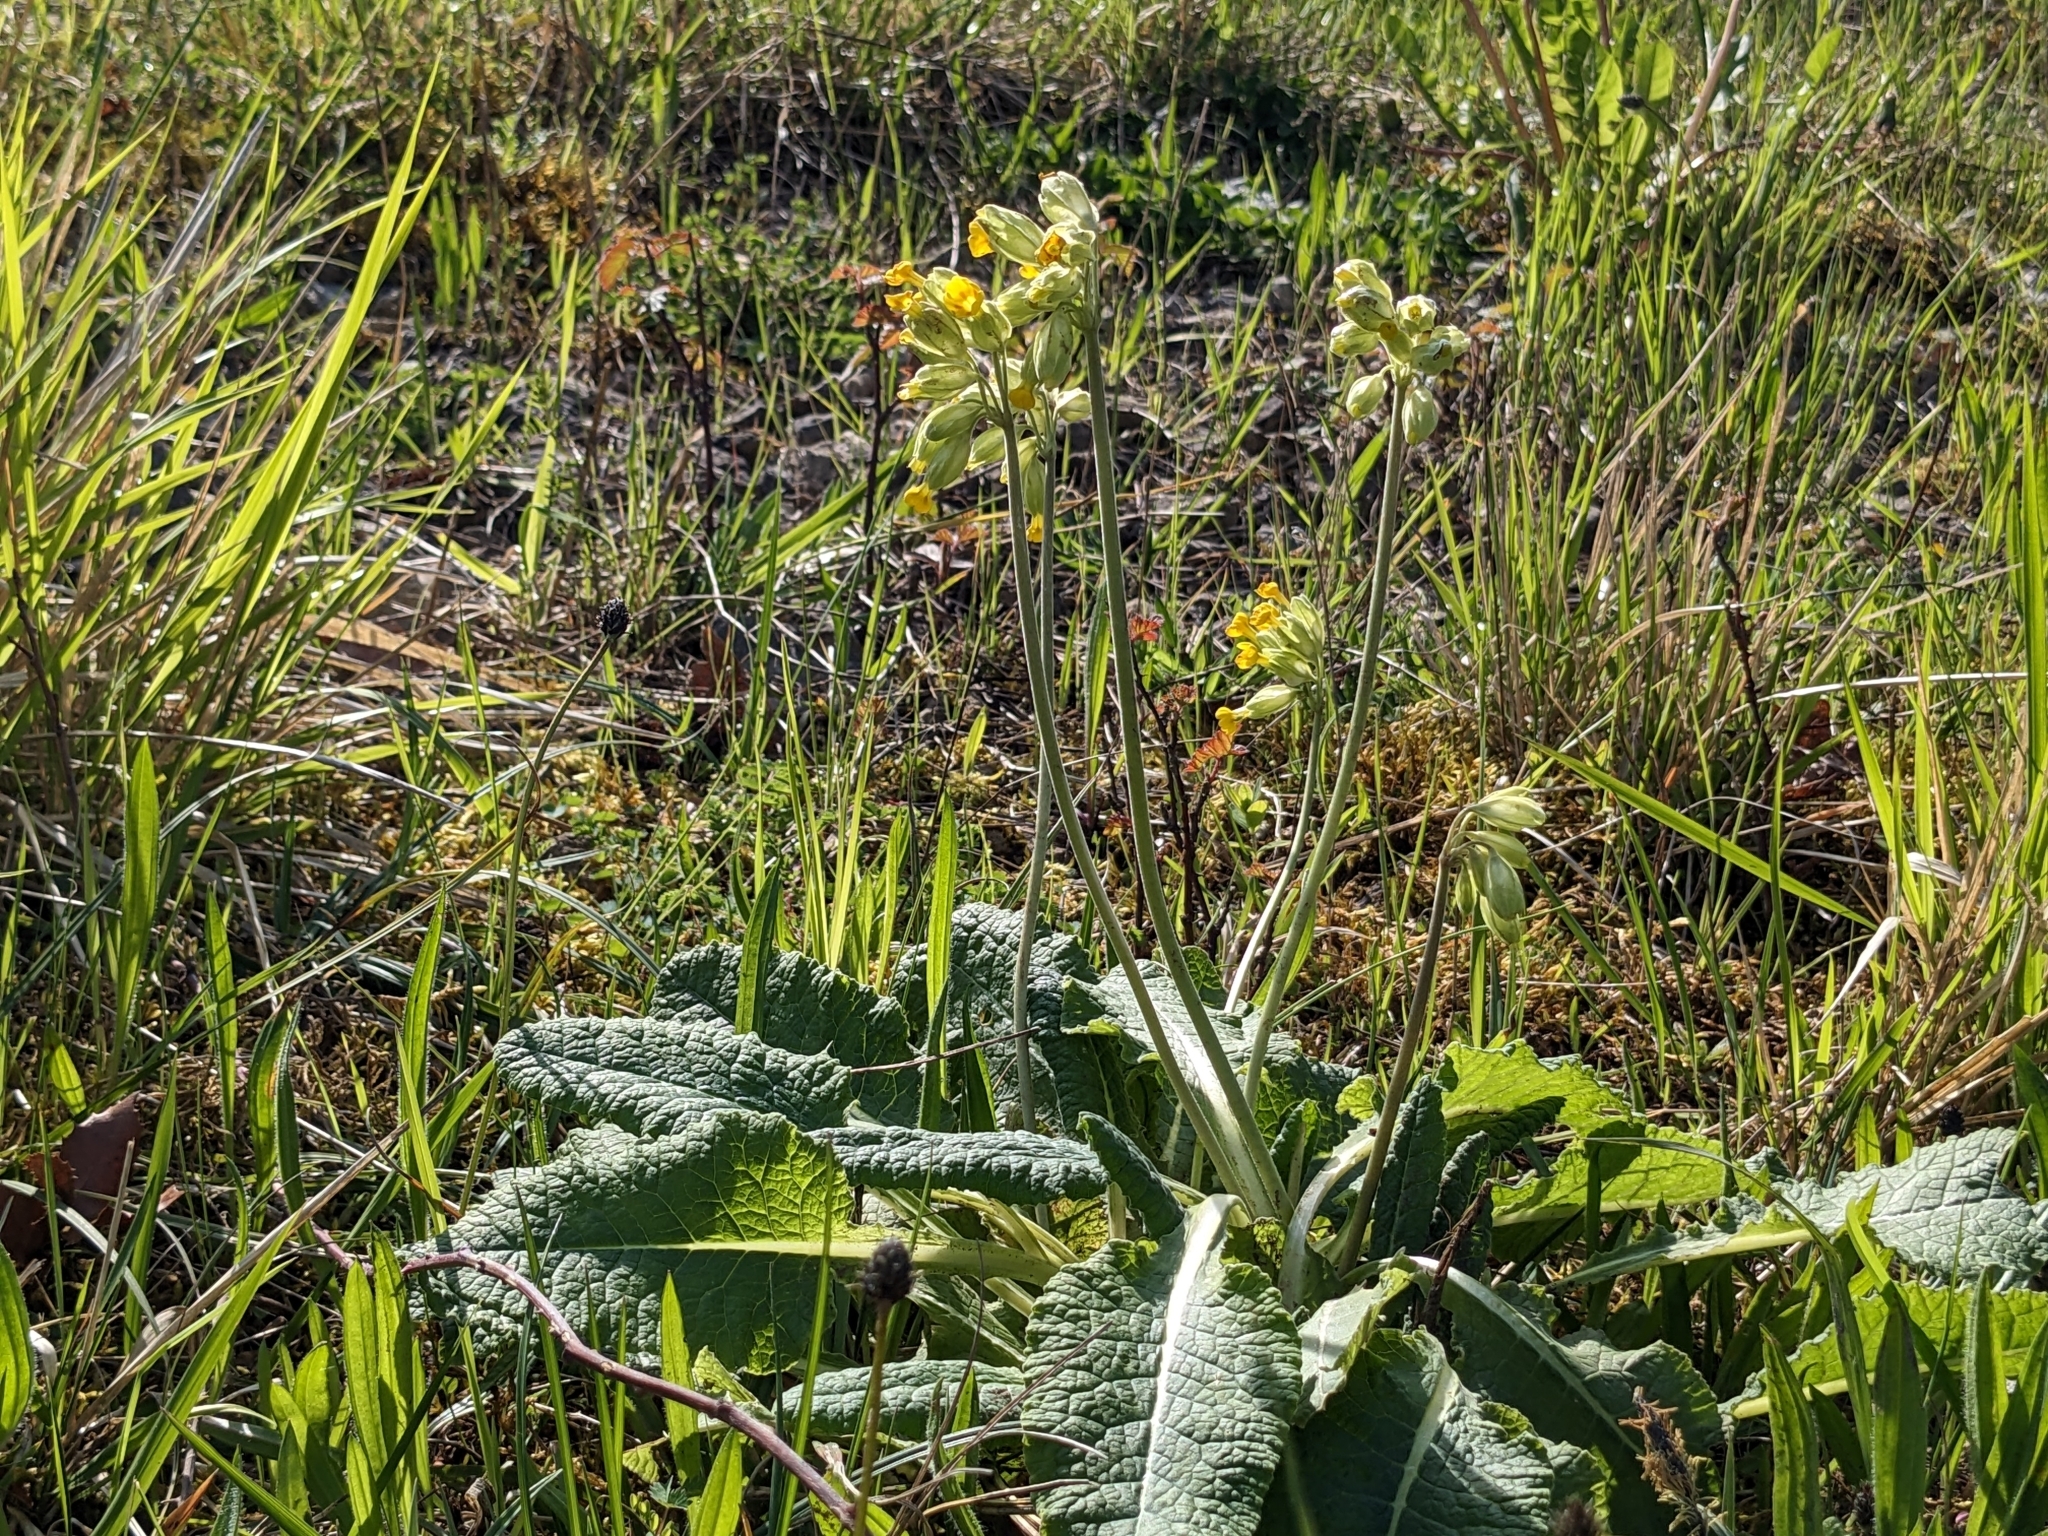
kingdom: Plantae
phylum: Tracheophyta
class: Magnoliopsida
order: Ericales
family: Primulaceae
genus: Primula
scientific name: Primula veris
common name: Cowslip
